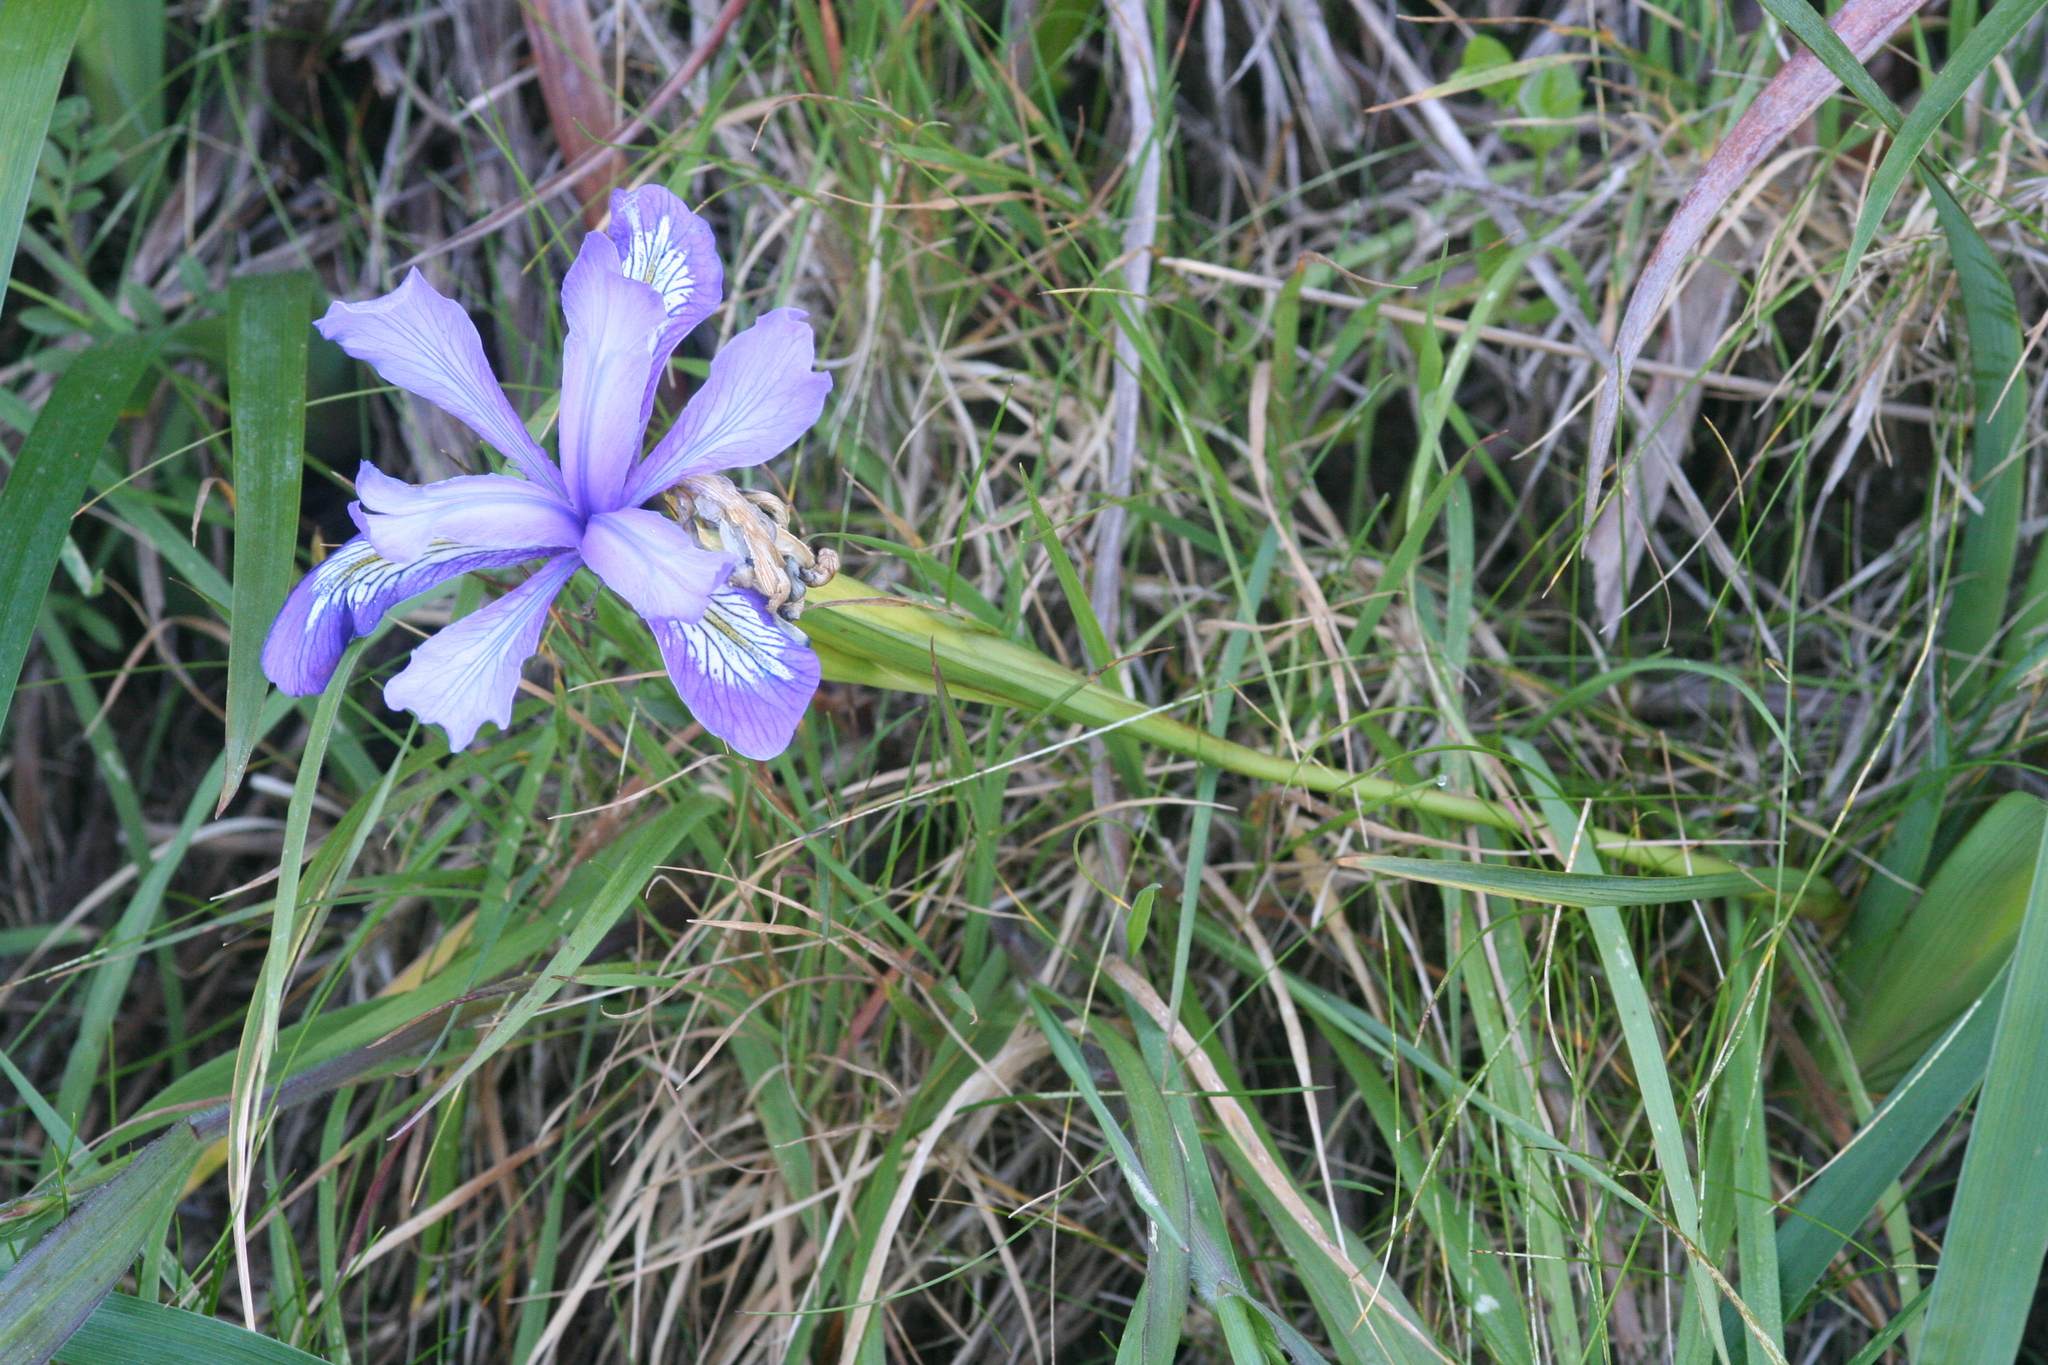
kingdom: Plantae
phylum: Tracheophyta
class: Liliopsida
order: Asparagales
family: Iridaceae
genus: Iris
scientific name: Iris douglasiana
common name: Marin iris
